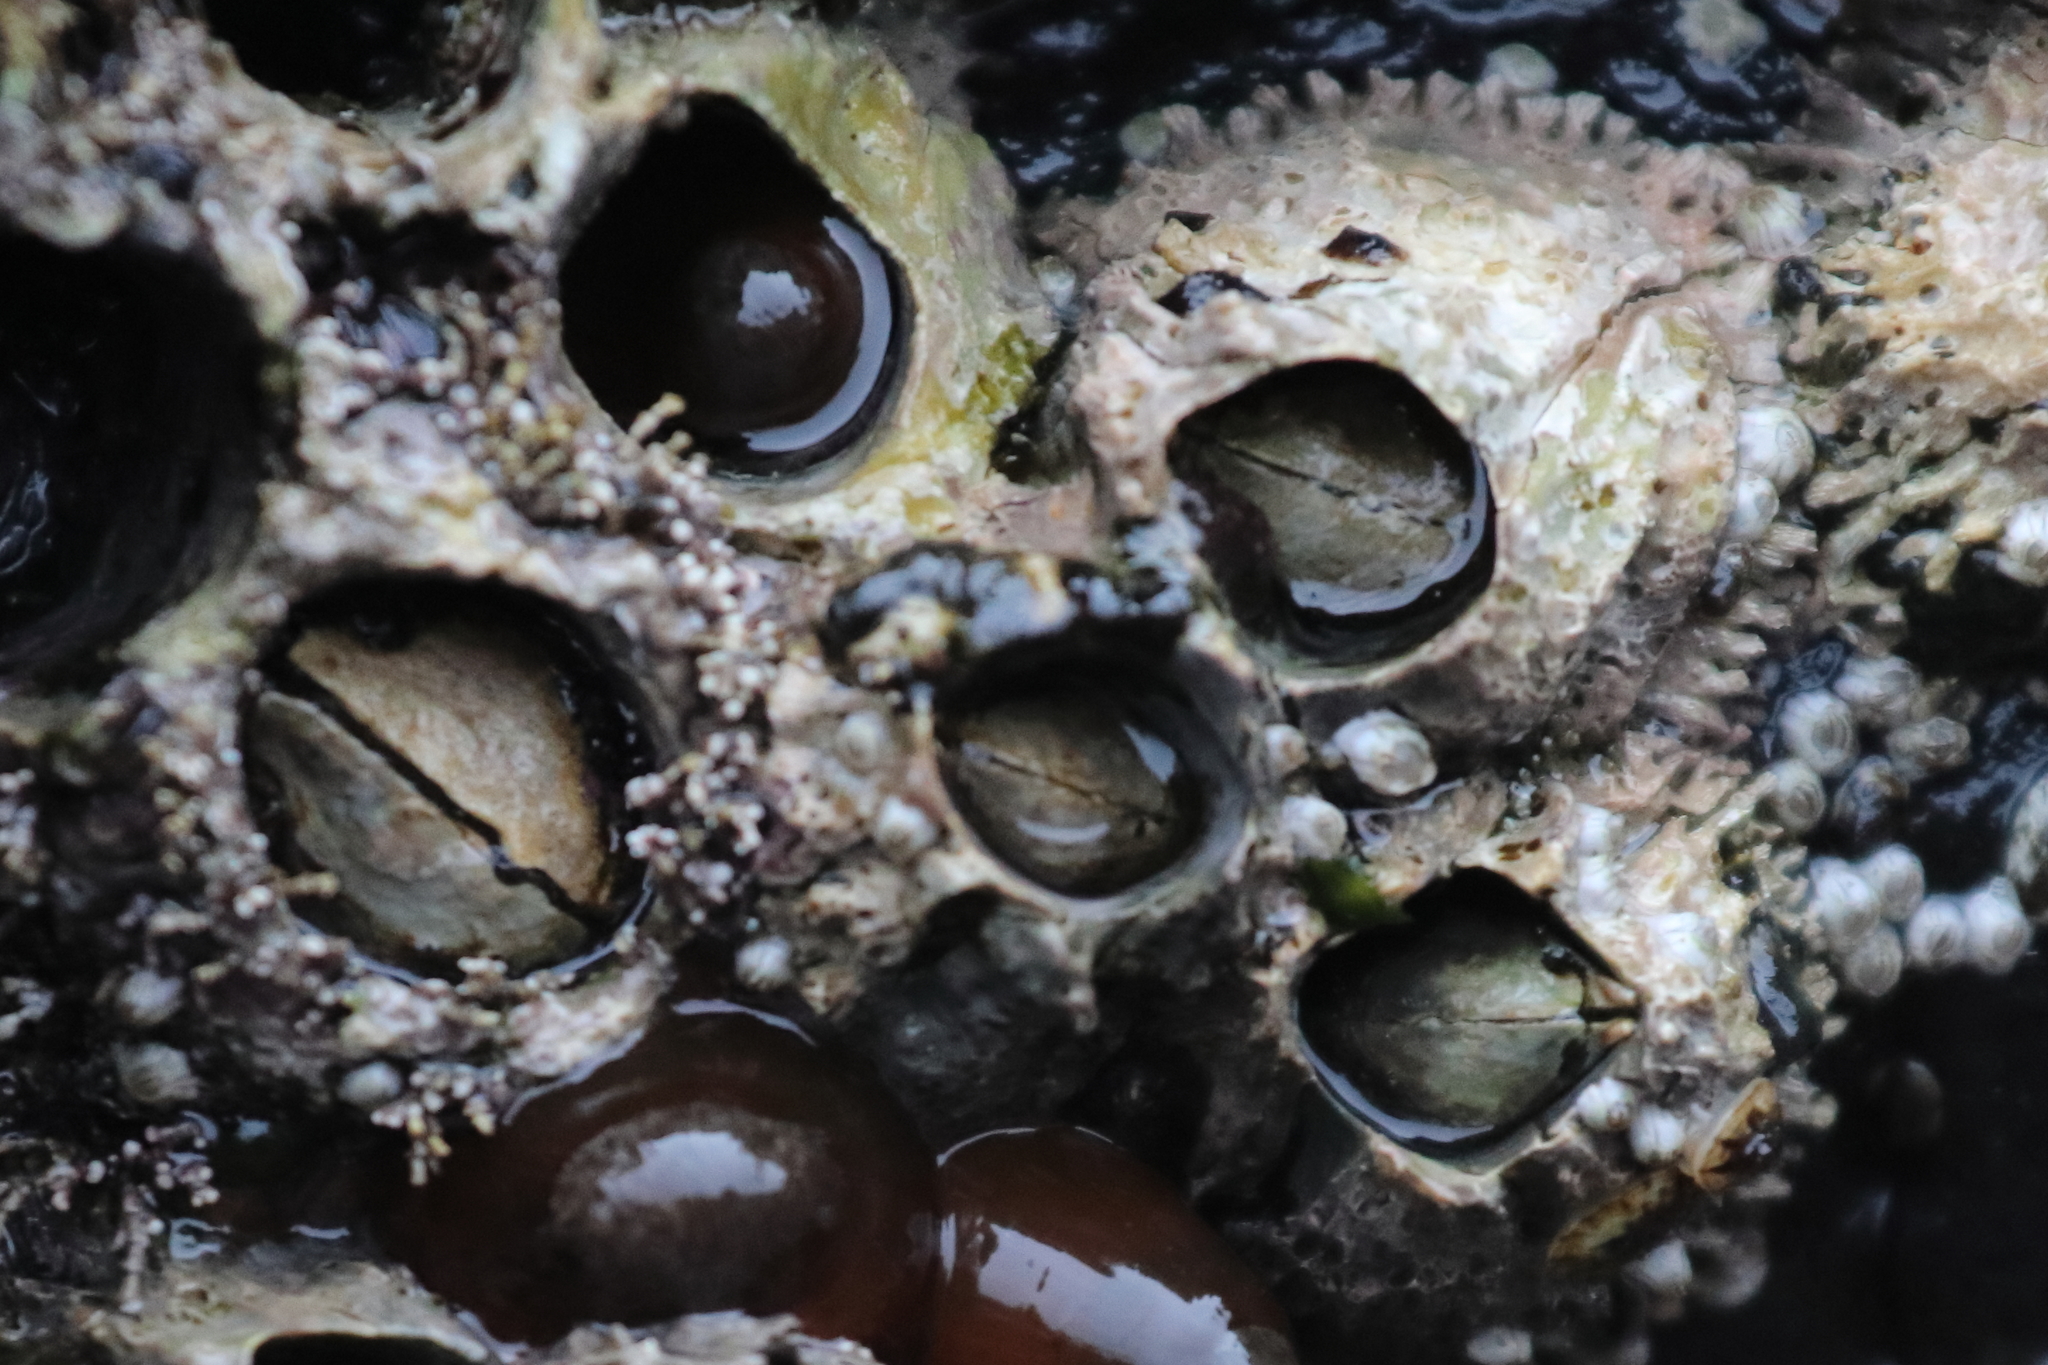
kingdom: Animalia
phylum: Arthropoda
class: Maxillopoda
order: Sessilia
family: Archaeobalanidae
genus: Semibalanus
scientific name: Semibalanus cariosus
